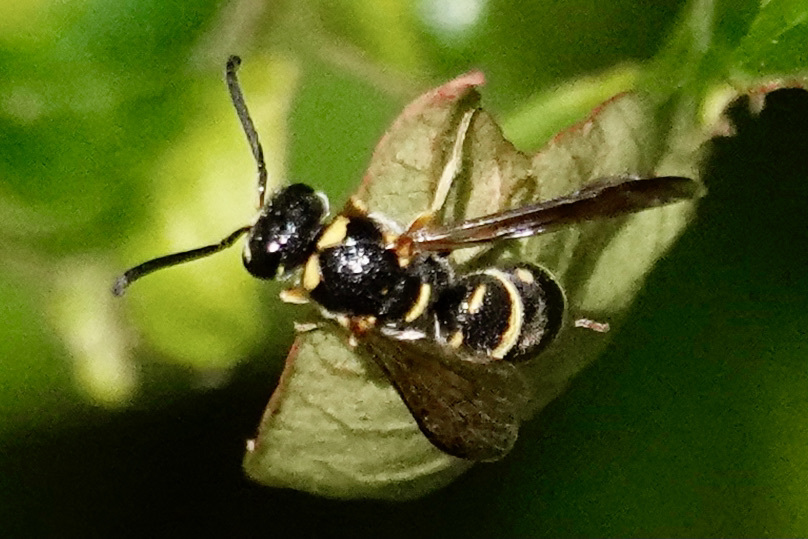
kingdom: Animalia
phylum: Arthropoda
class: Insecta
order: Hymenoptera
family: Eumenidae
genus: Parancistrocerus
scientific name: Parancistrocerus vagus
